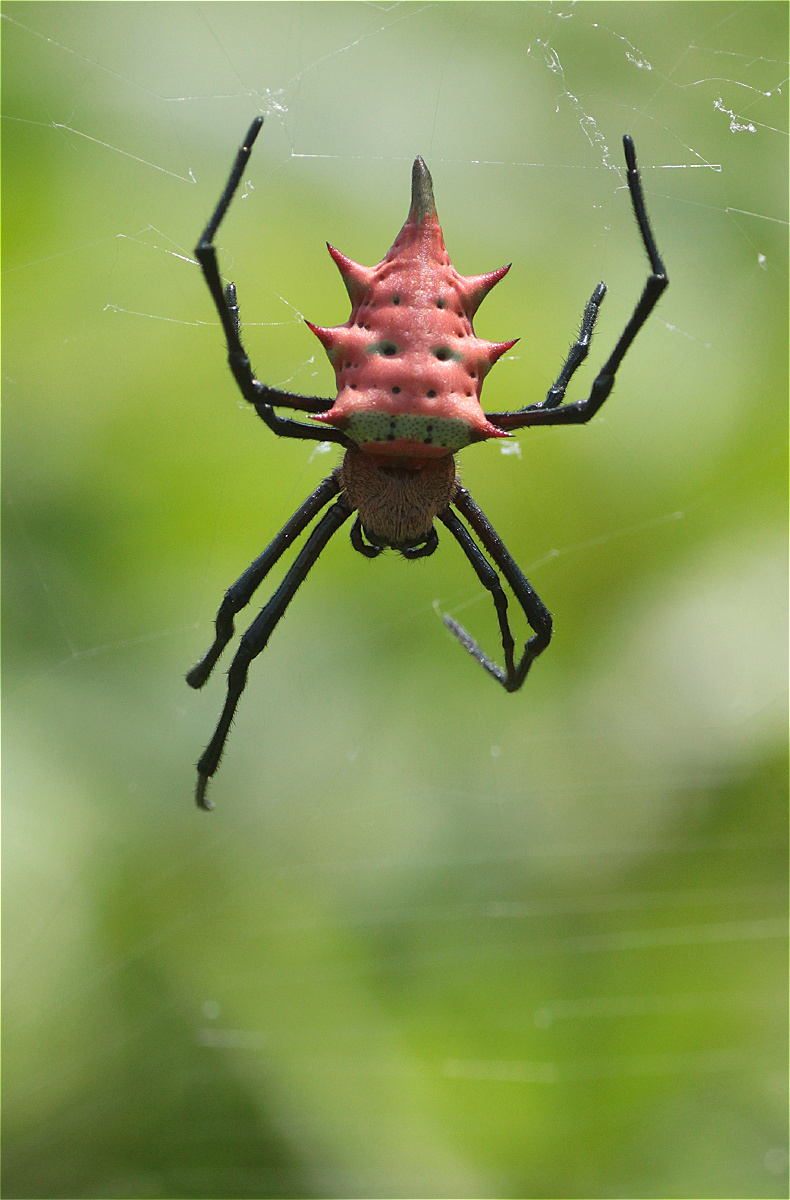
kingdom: Animalia
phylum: Arthropoda
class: Arachnida
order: Araneae
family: Araneidae
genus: Rubrepeira
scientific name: Rubrepeira rubronigra
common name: Orb weavers
